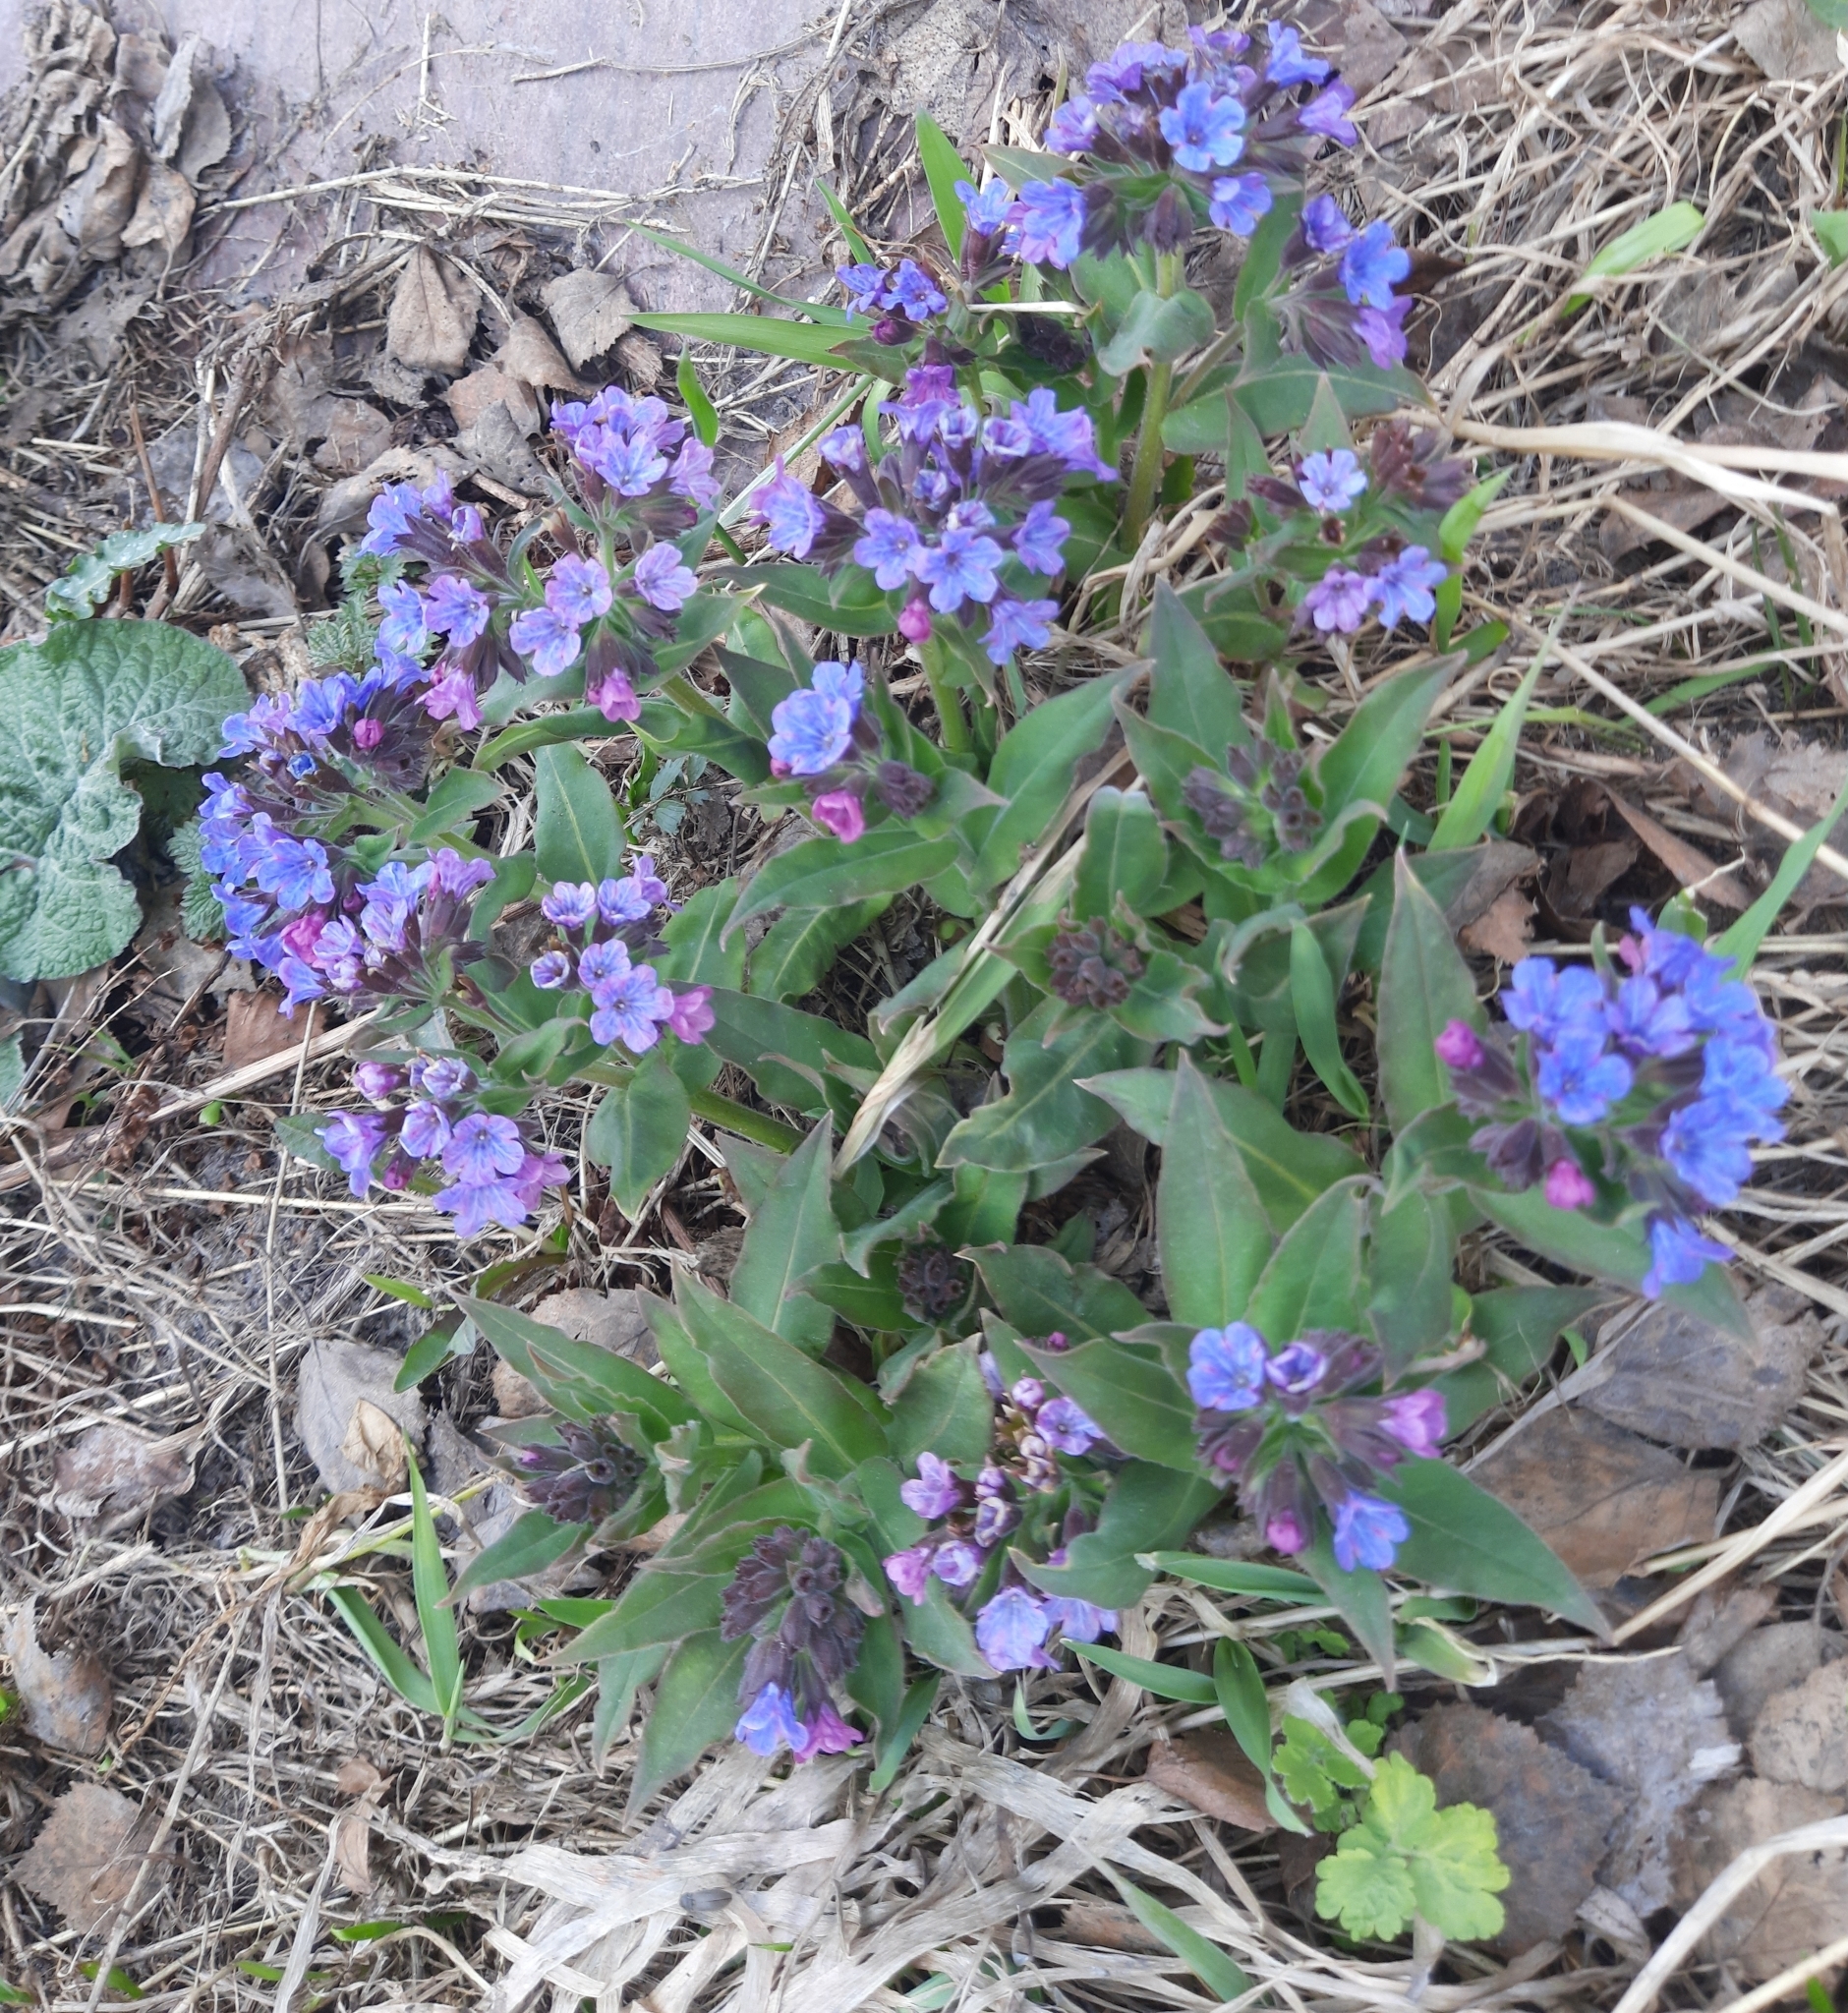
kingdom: Plantae
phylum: Tracheophyta
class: Magnoliopsida
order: Boraginales
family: Boraginaceae
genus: Pulmonaria
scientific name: Pulmonaria mollis
